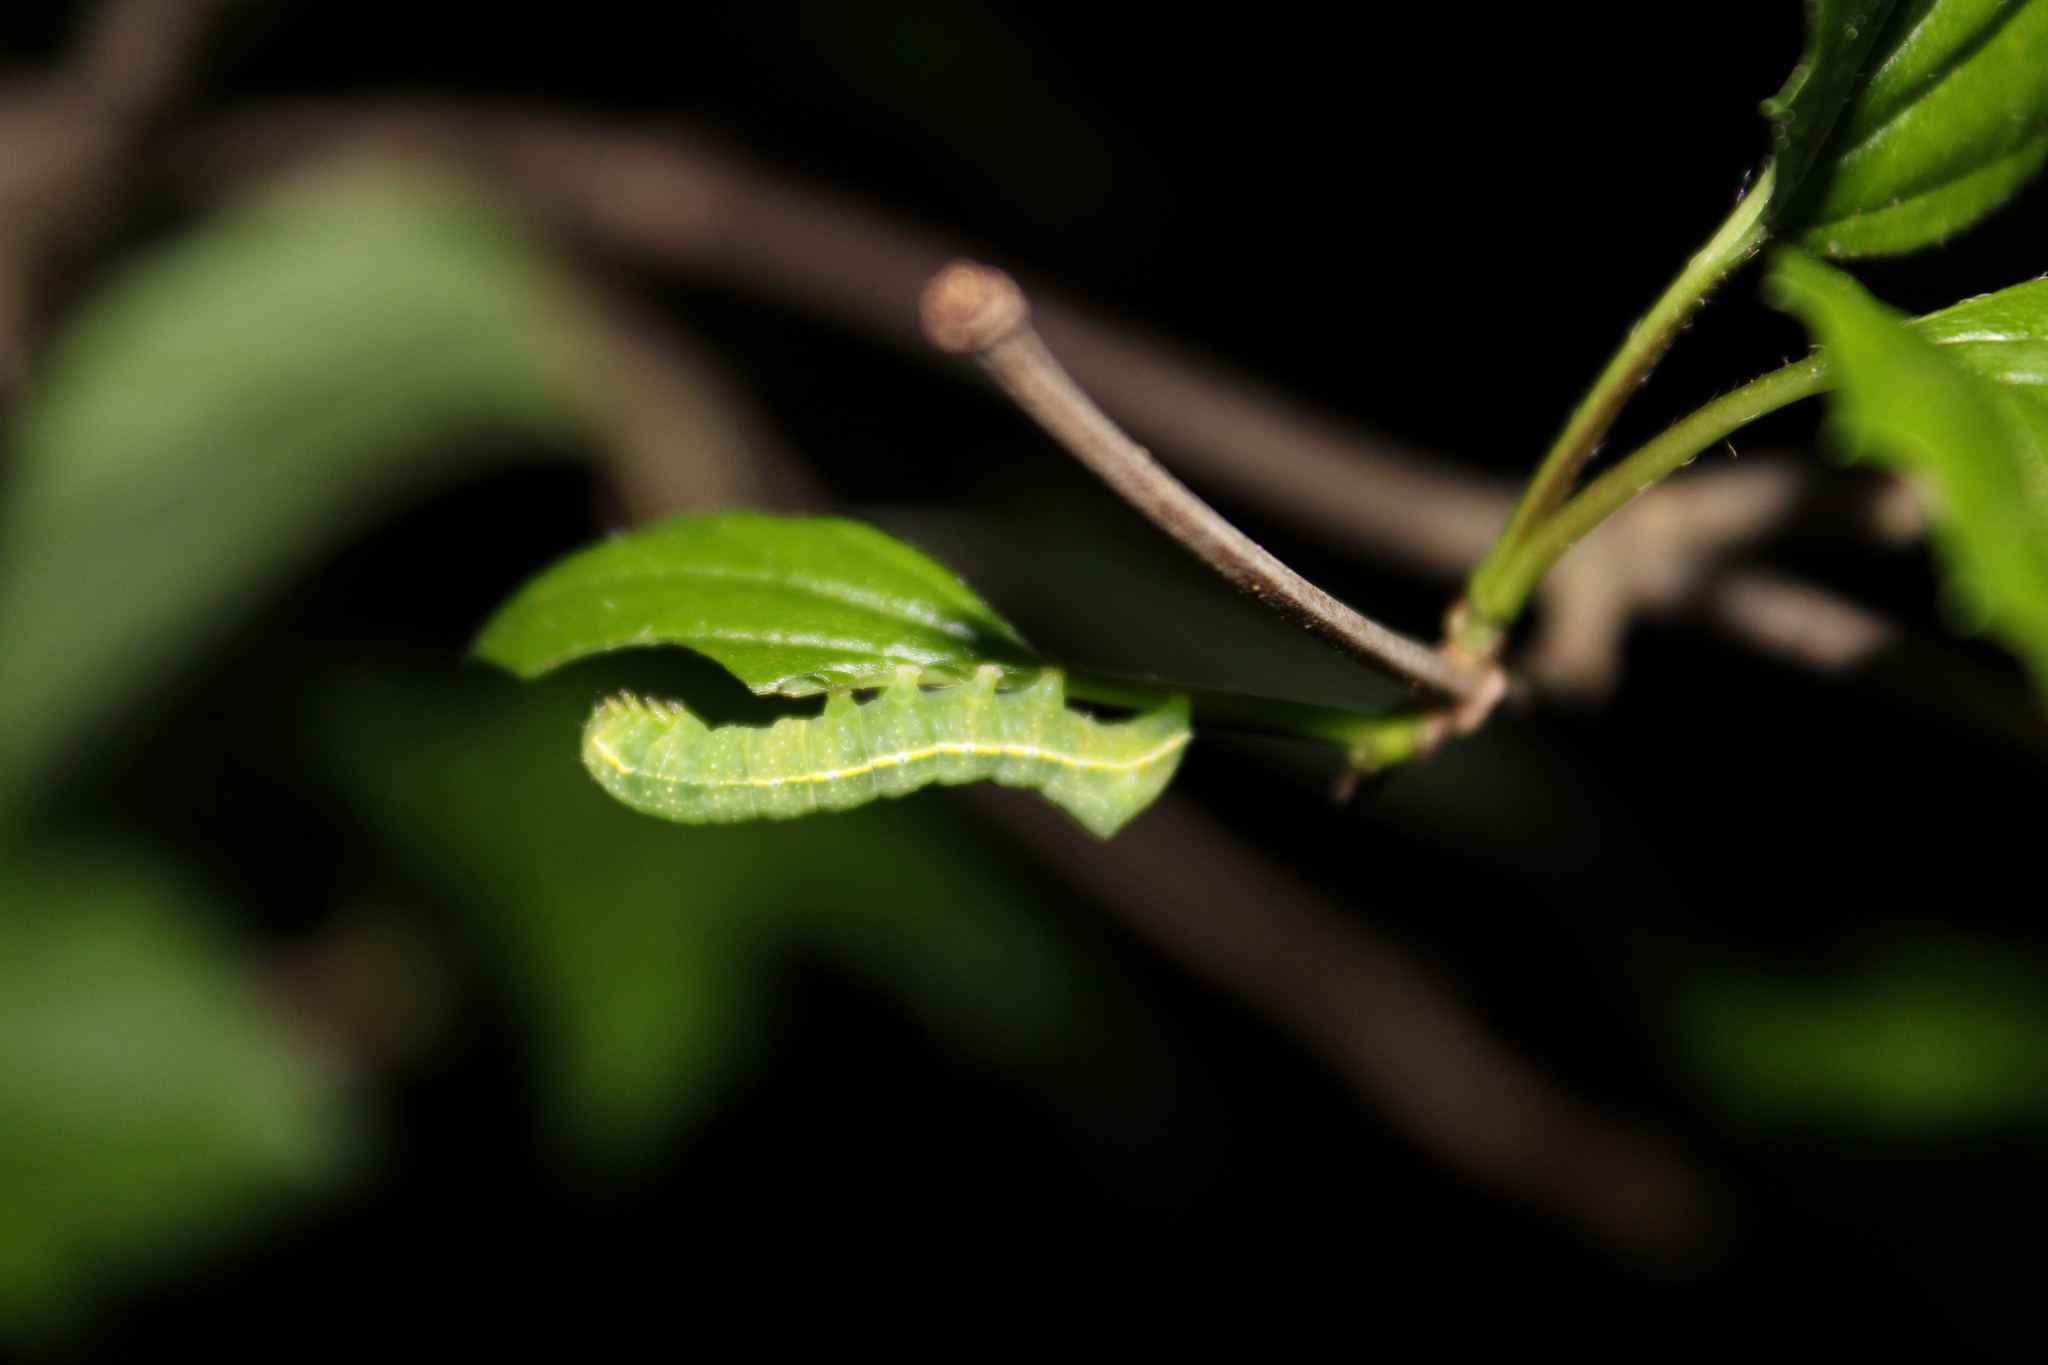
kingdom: Animalia
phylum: Arthropoda
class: Insecta
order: Lepidoptera
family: Noctuidae
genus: Amphipyra
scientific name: Amphipyra pyramidoides
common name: American copper underwing
